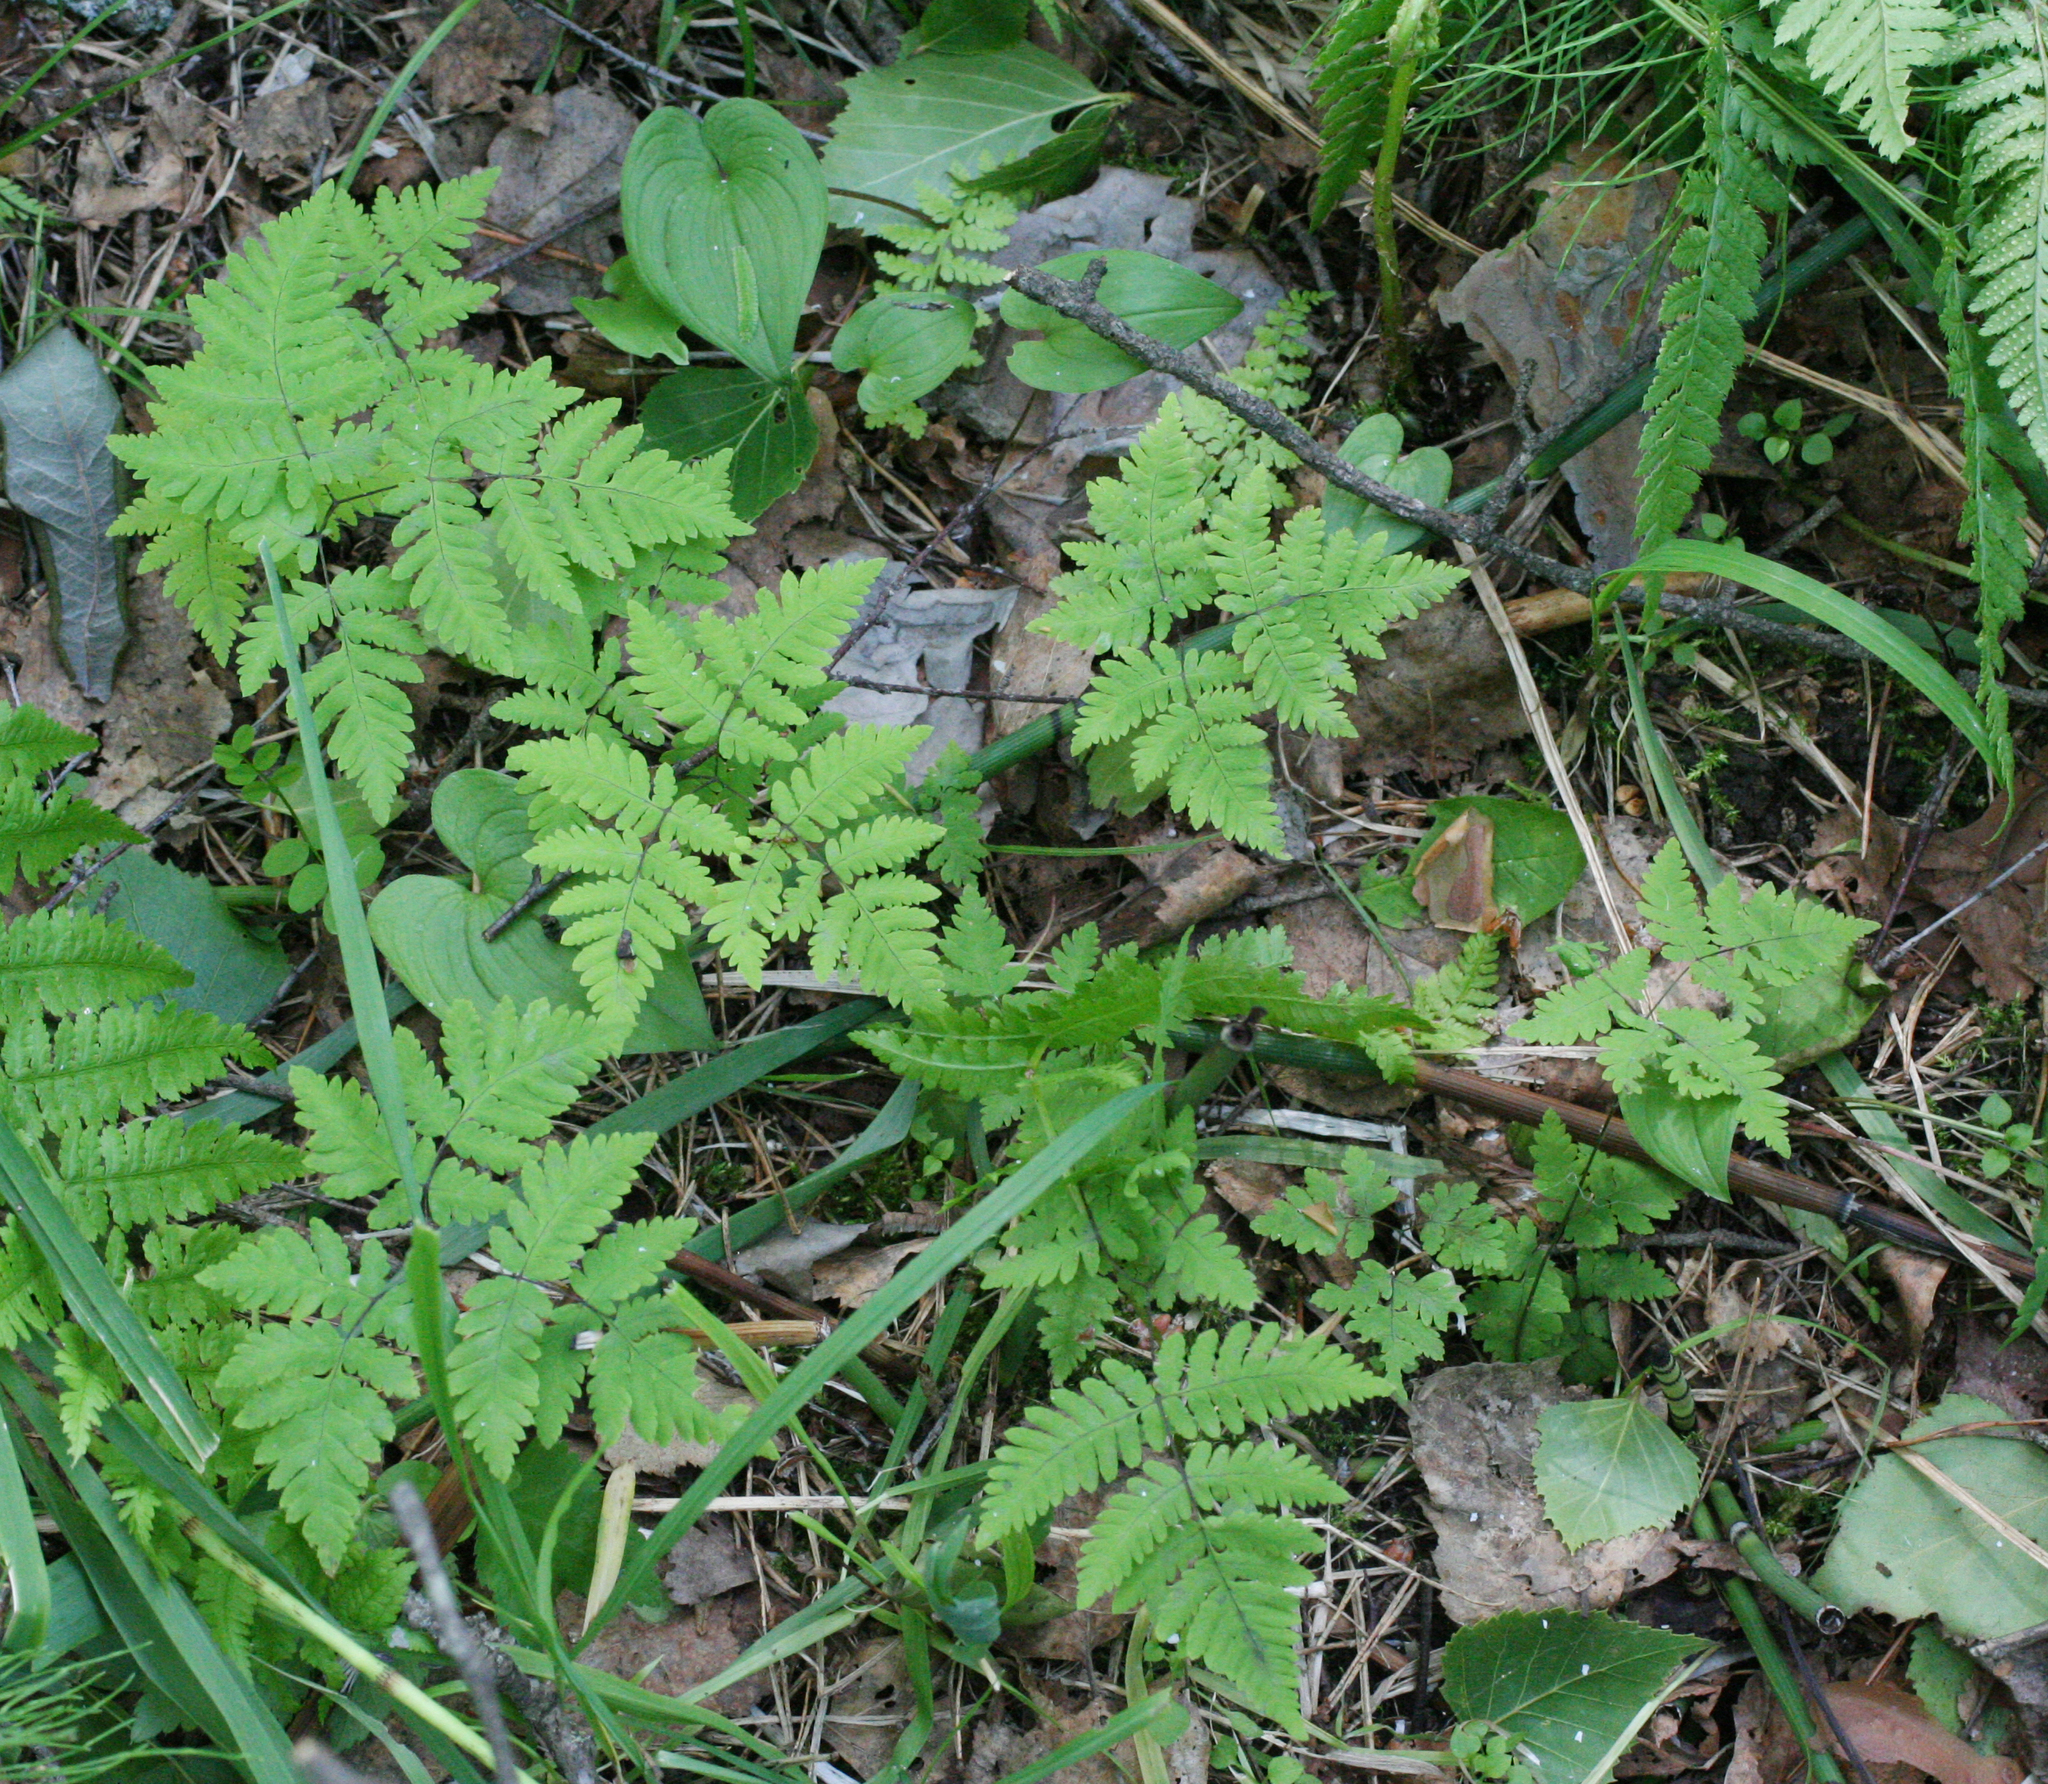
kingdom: Plantae
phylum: Tracheophyta
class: Polypodiopsida
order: Polypodiales
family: Cystopteridaceae
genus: Gymnocarpium
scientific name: Gymnocarpium dryopteris
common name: Oak fern
